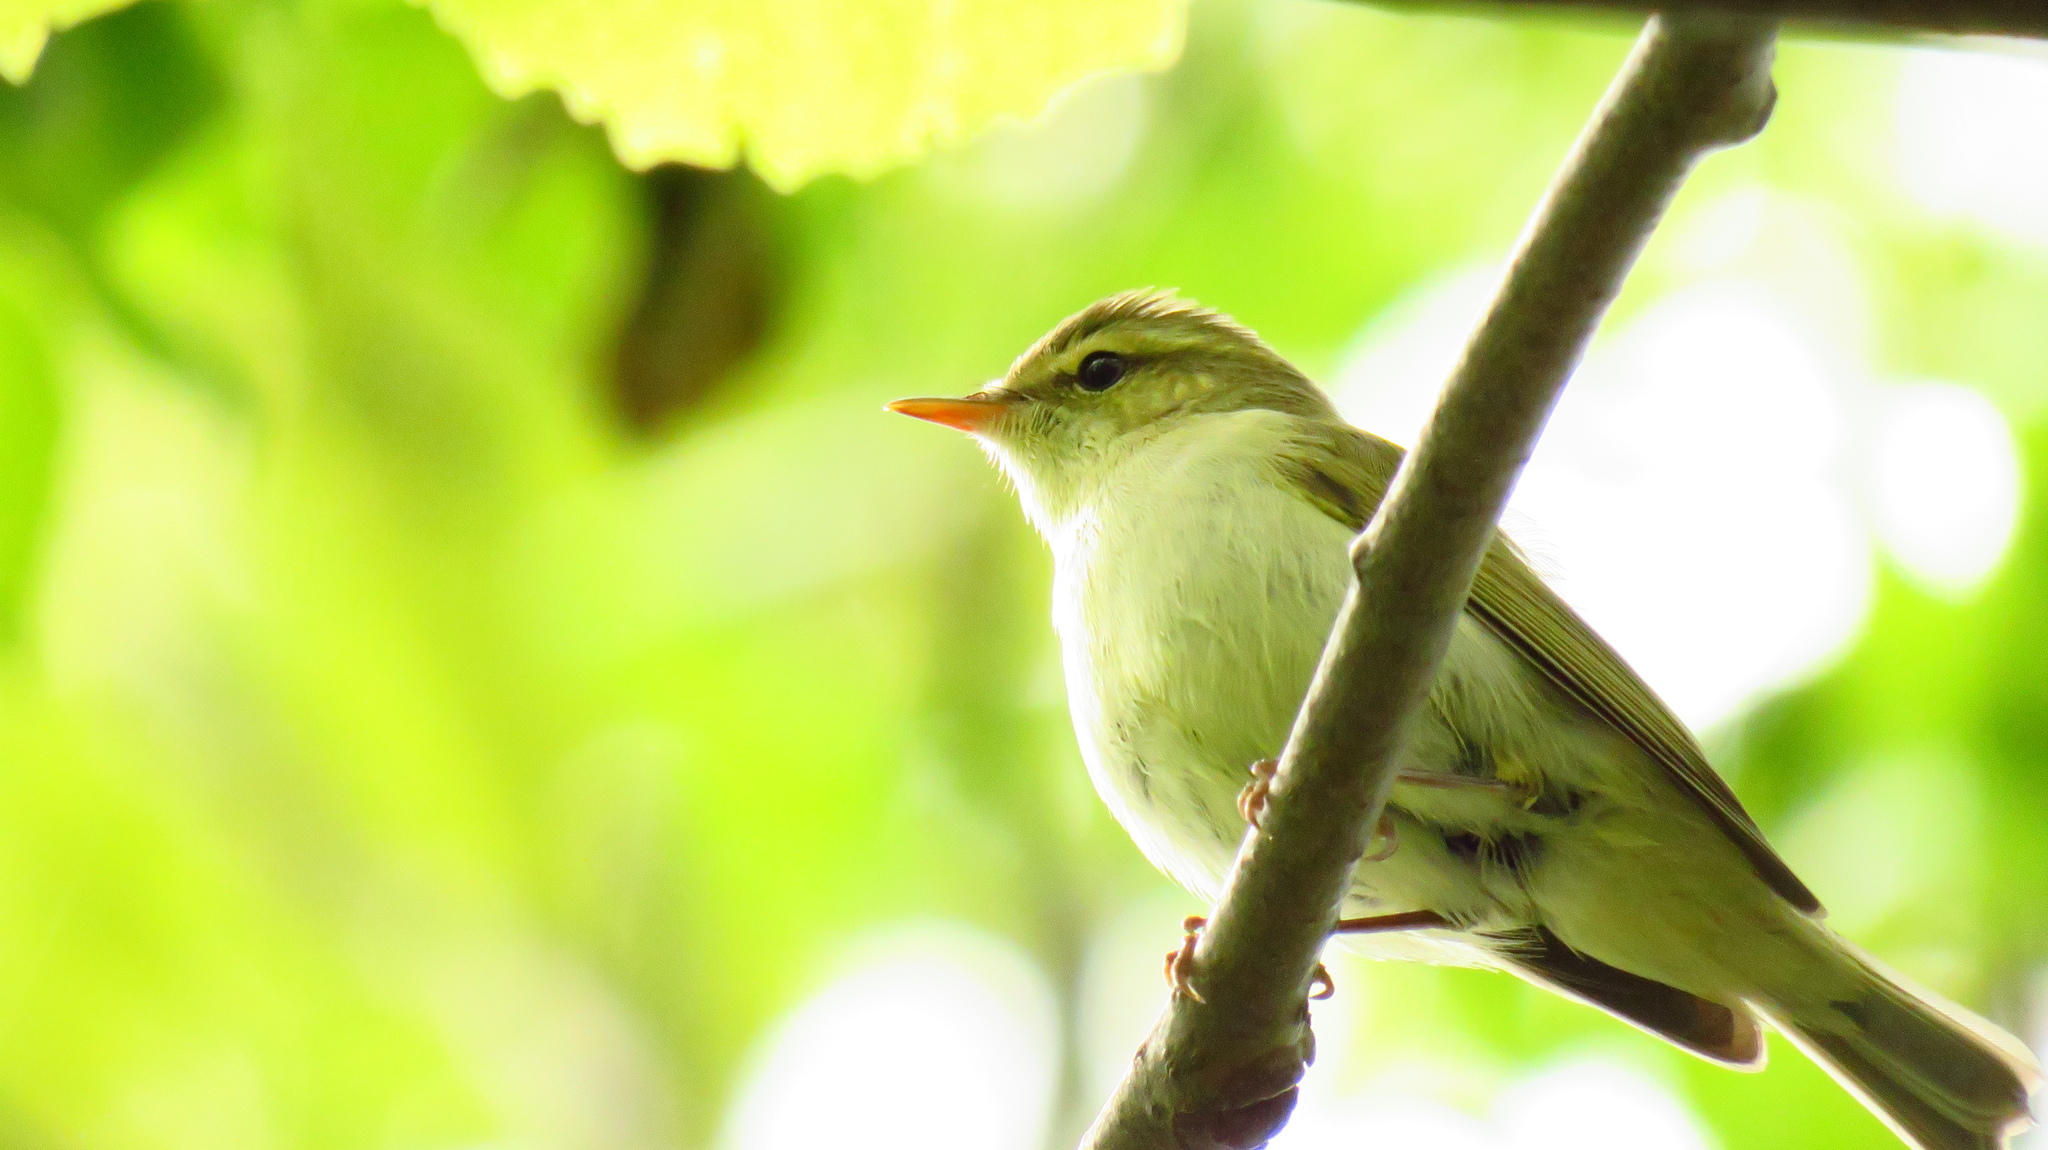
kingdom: Animalia
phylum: Chordata
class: Aves
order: Passeriformes
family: Phylloscopidae
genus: Phylloscopus
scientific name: Phylloscopus trochiloides
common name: Greenish warbler
